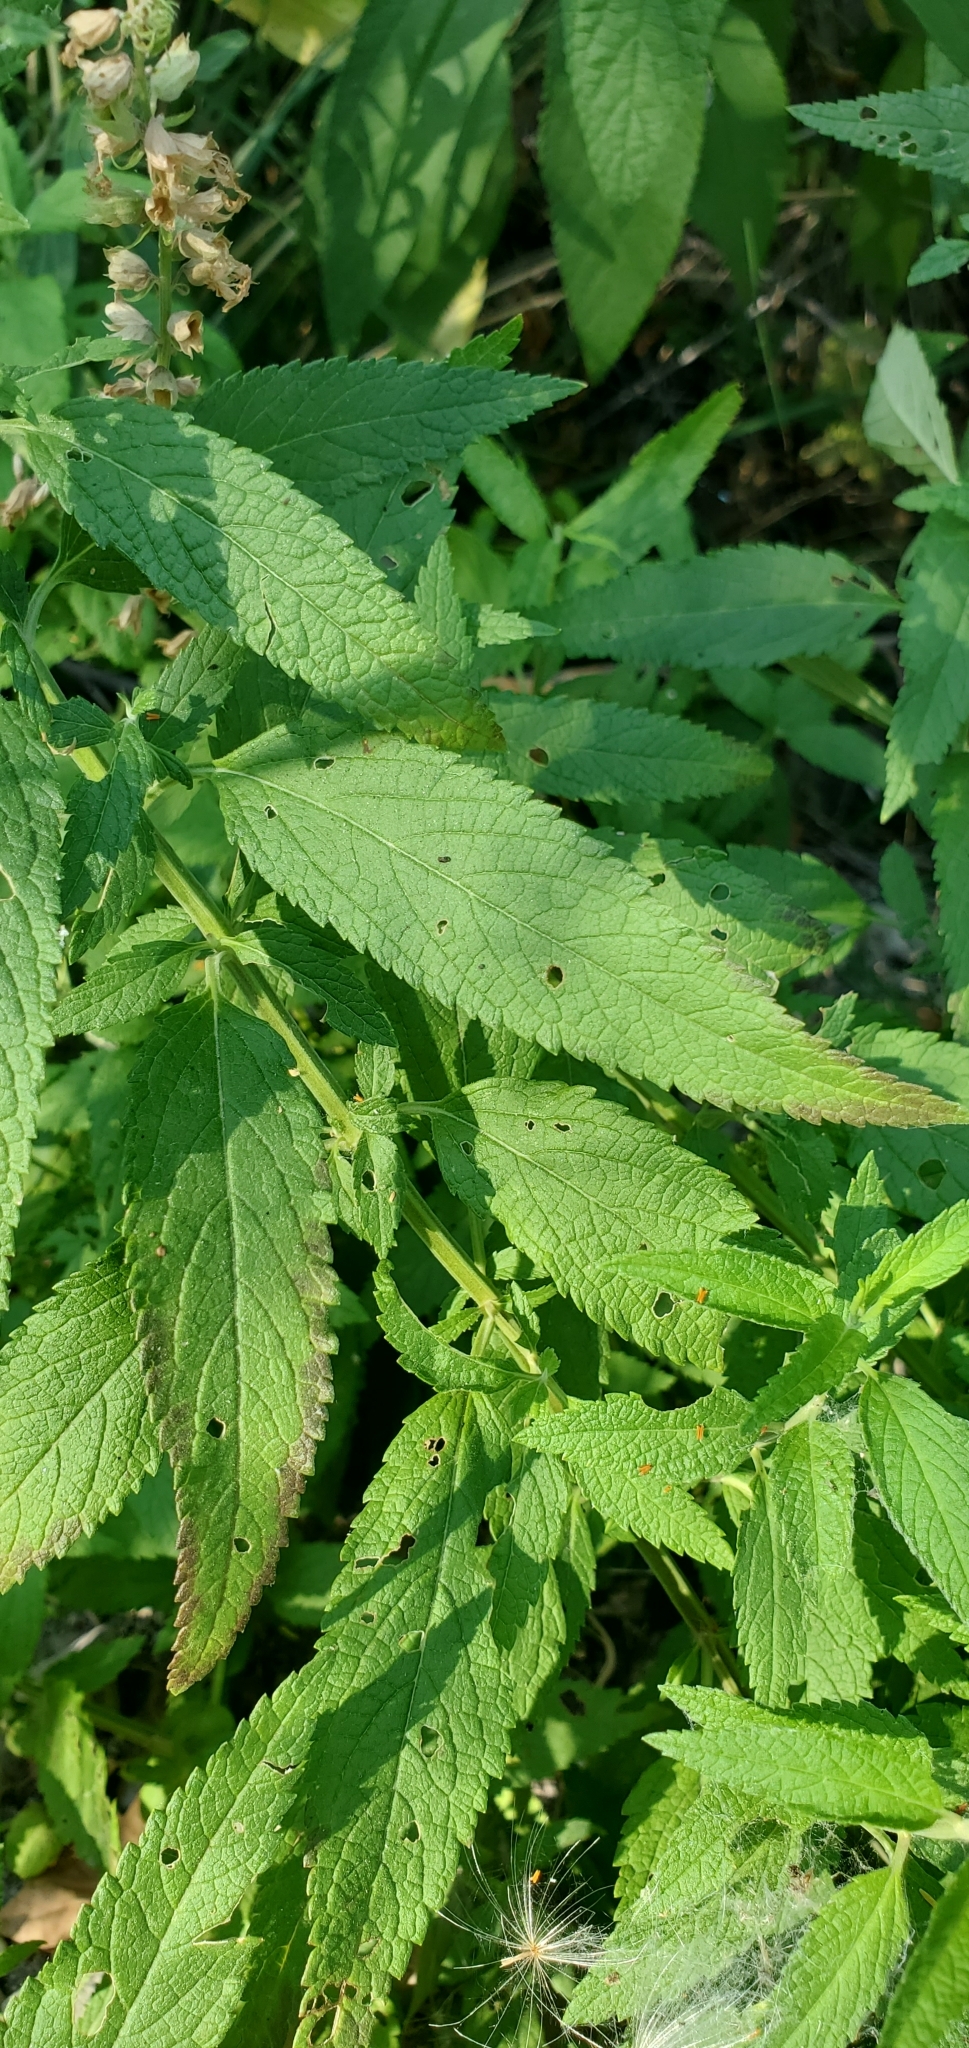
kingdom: Plantae
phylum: Tracheophyta
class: Magnoliopsida
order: Lamiales
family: Lamiaceae
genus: Teucrium
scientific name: Teucrium canadense
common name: American germander
